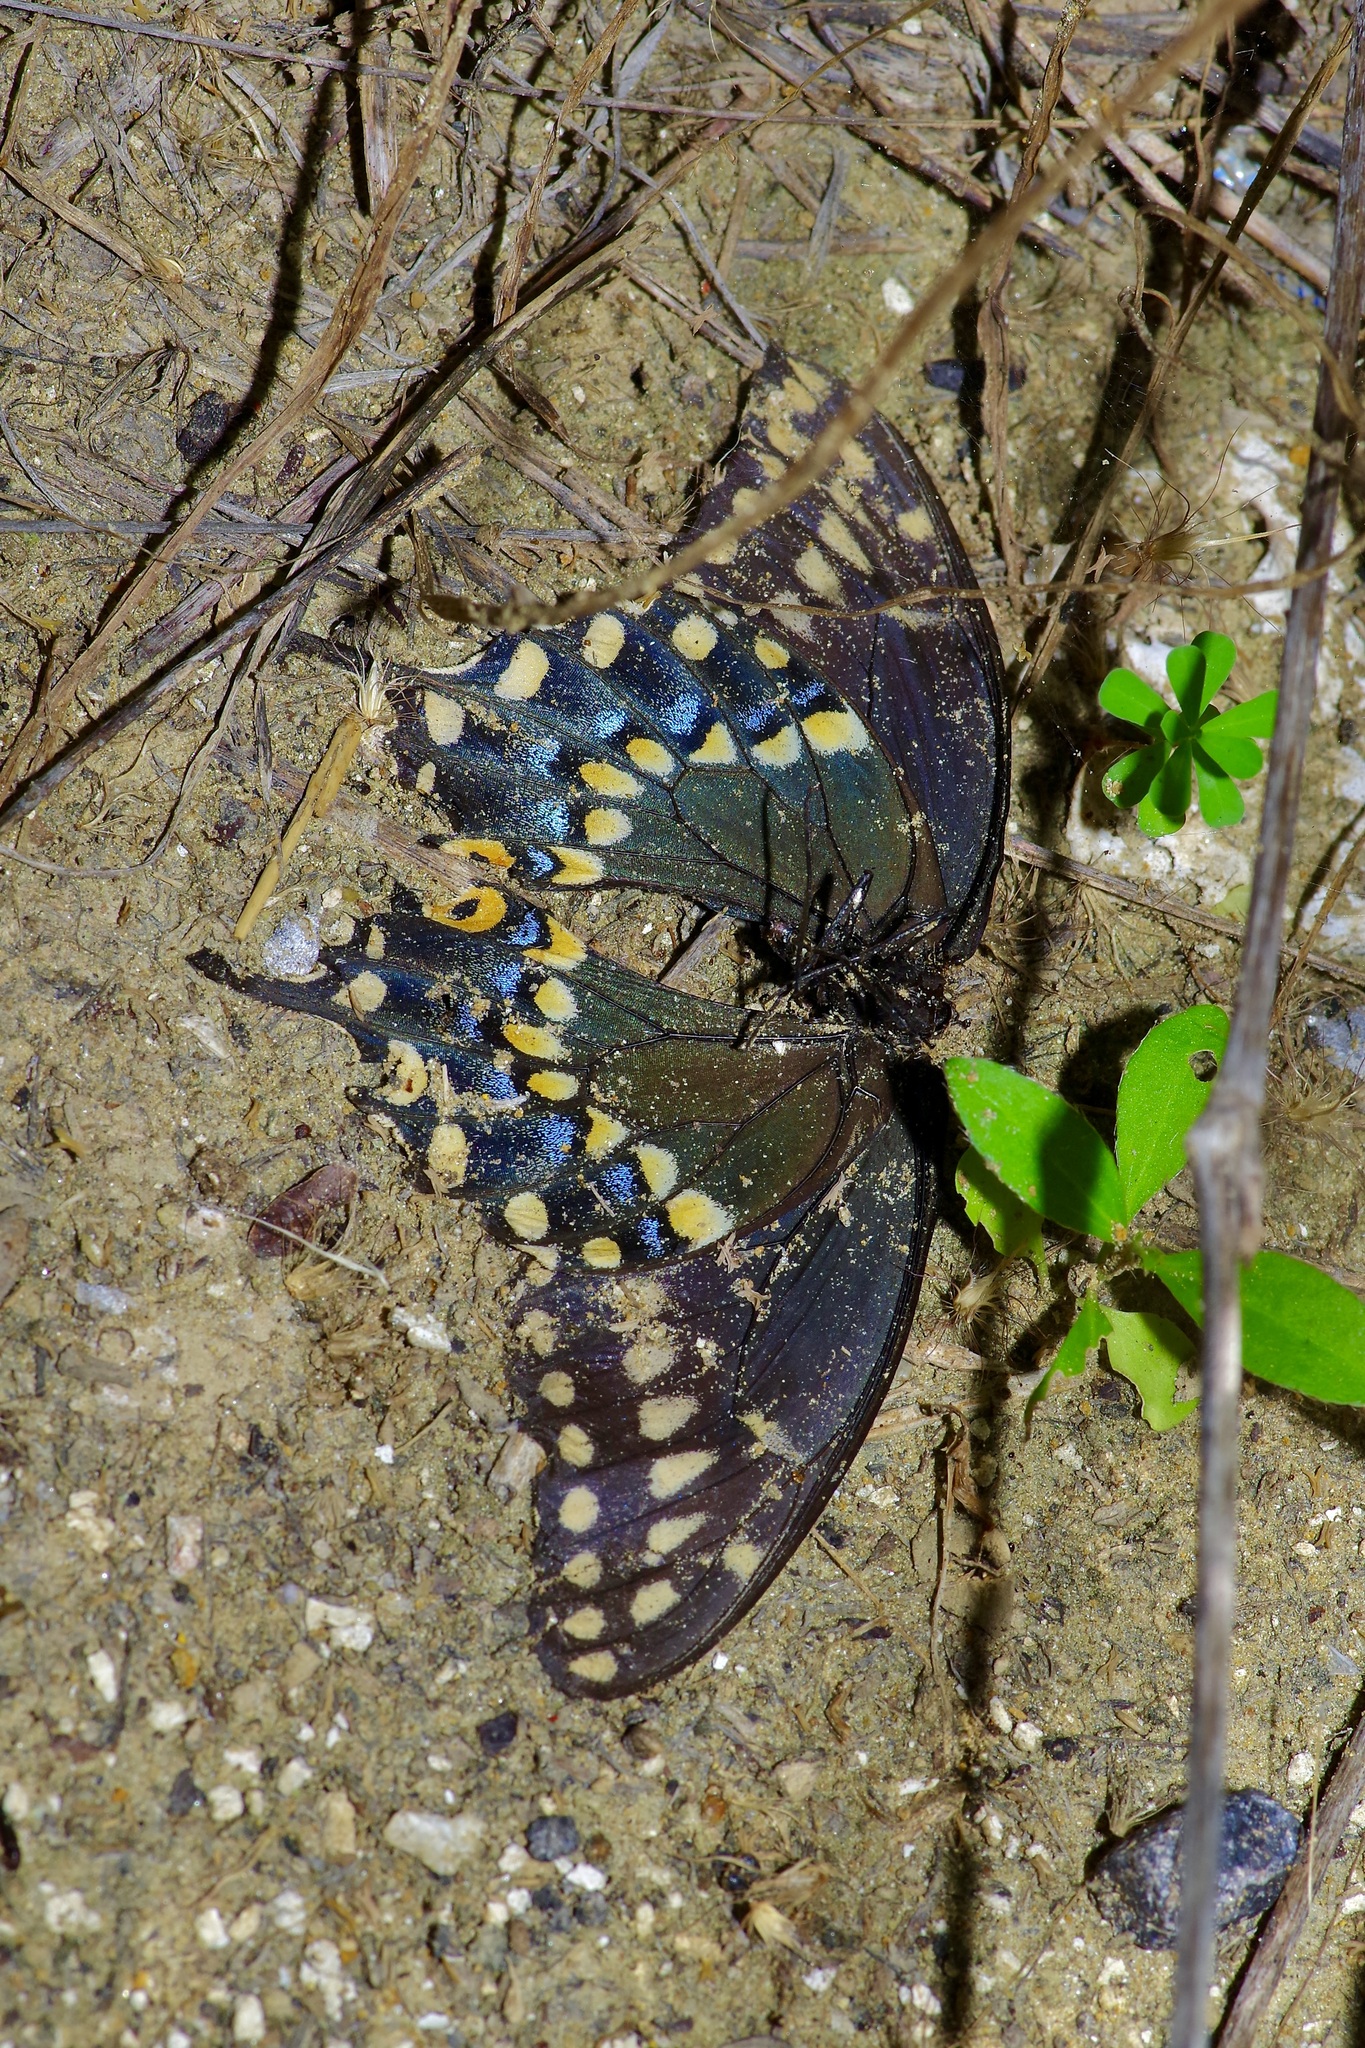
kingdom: Animalia
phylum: Arthropoda
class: Insecta
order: Lepidoptera
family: Papilionidae
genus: Papilio
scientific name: Papilio polyxenes
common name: Black swallowtail
